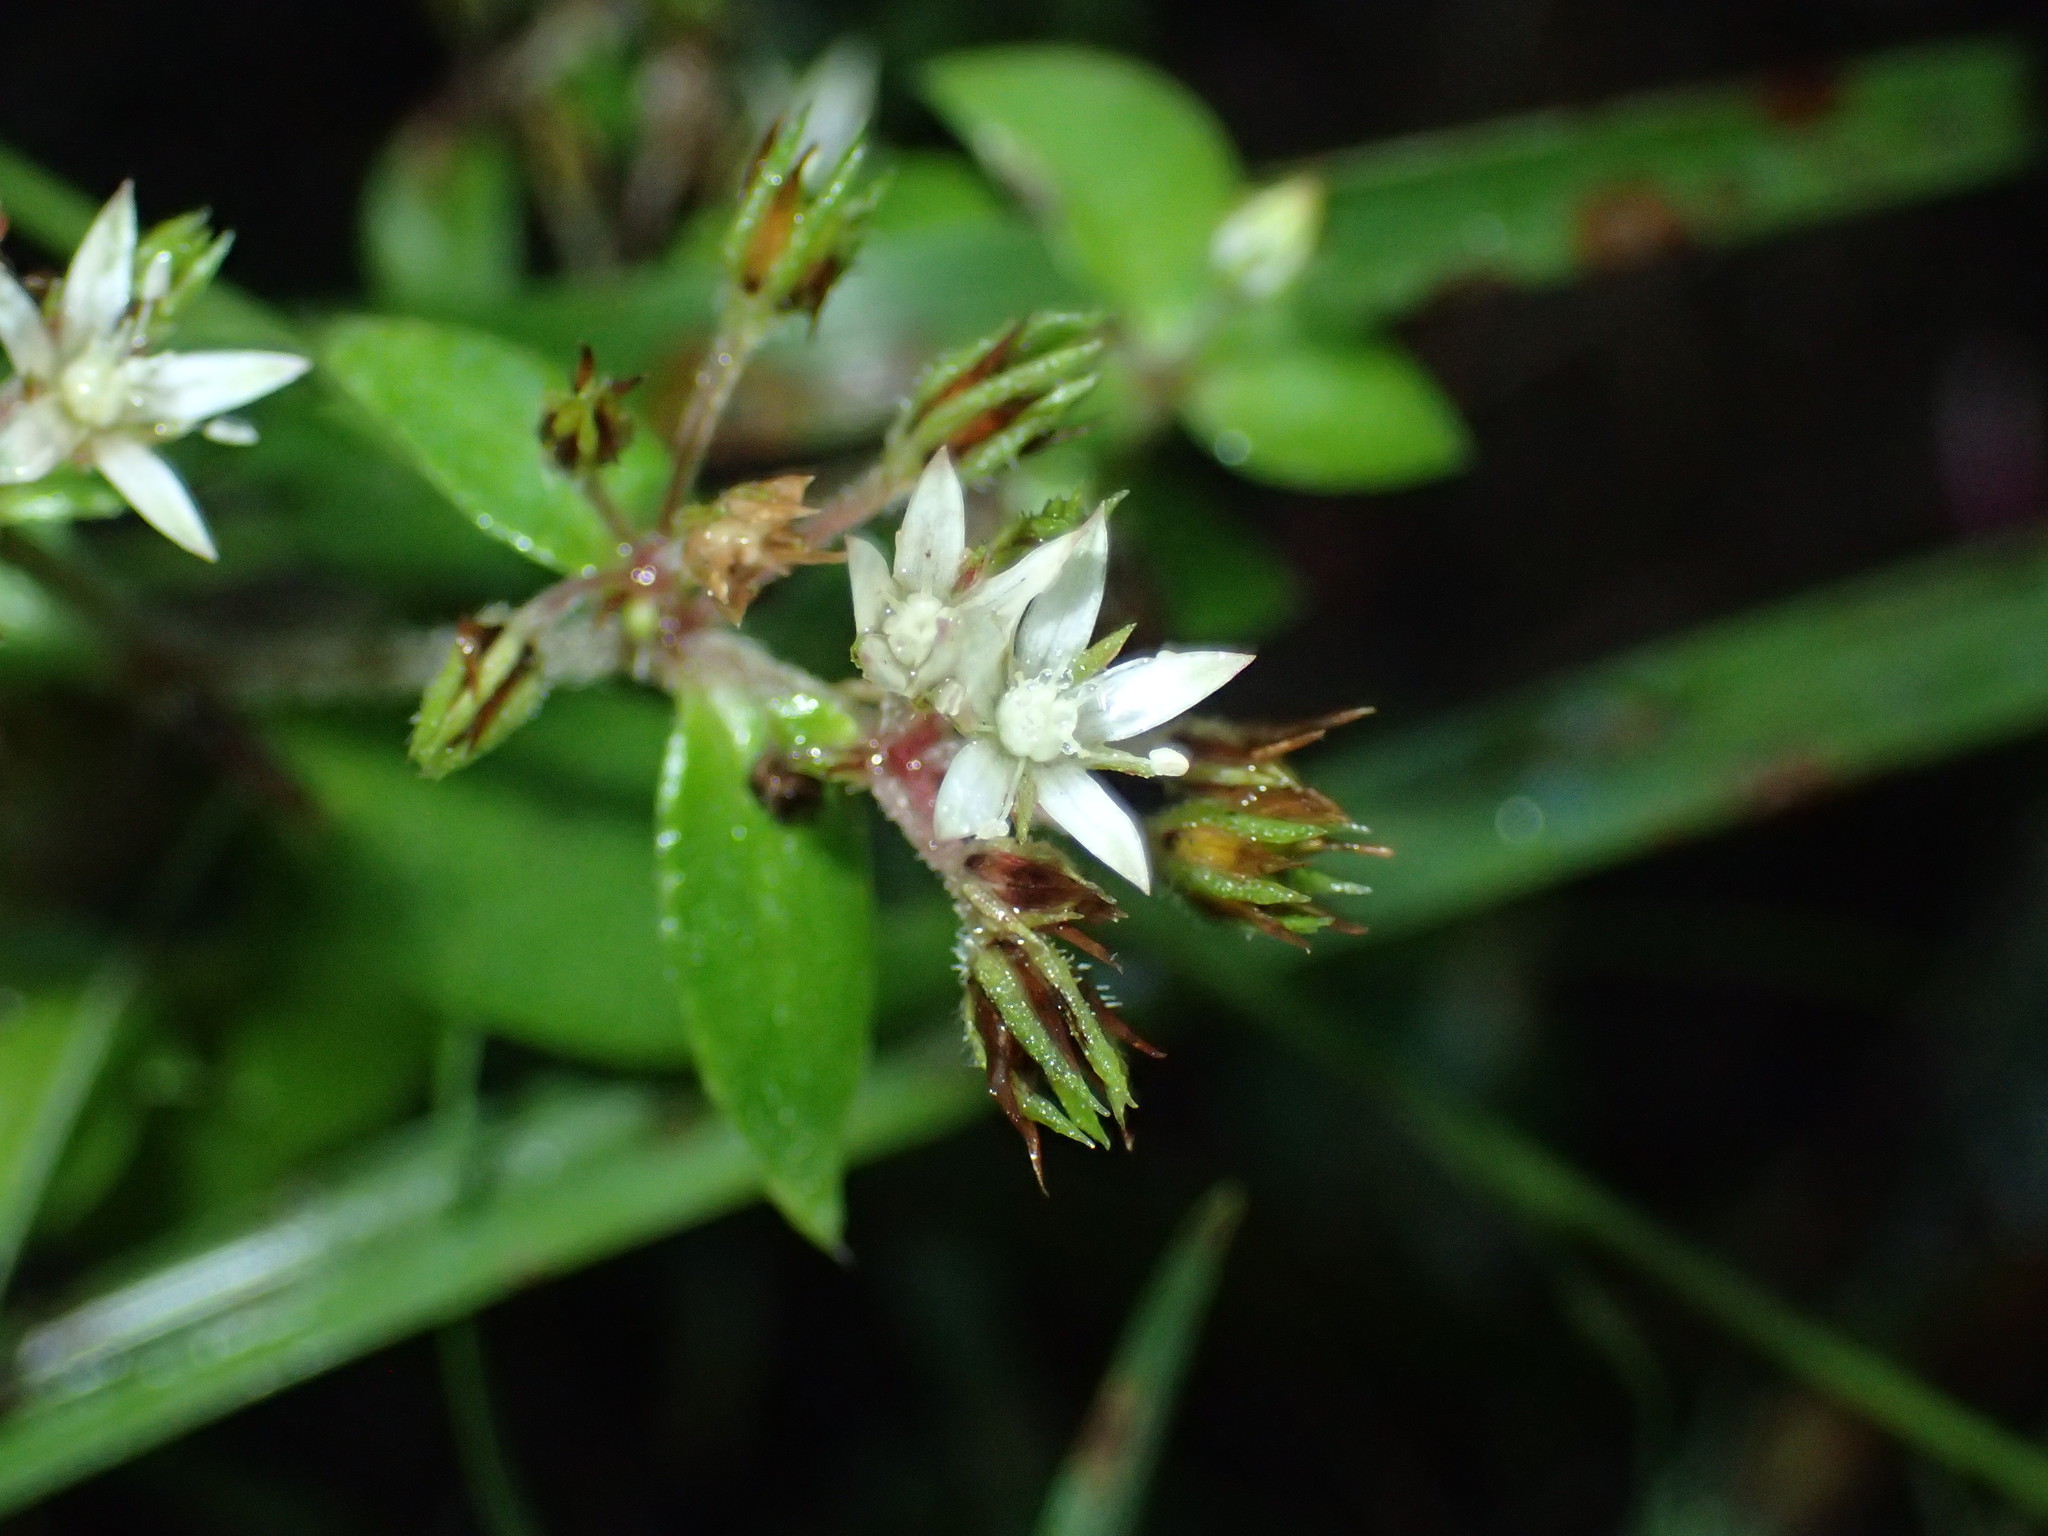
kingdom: Plantae
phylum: Tracheophyta
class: Magnoliopsida
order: Saxifragales
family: Crassulaceae
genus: Crassula
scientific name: Crassula pellucida
